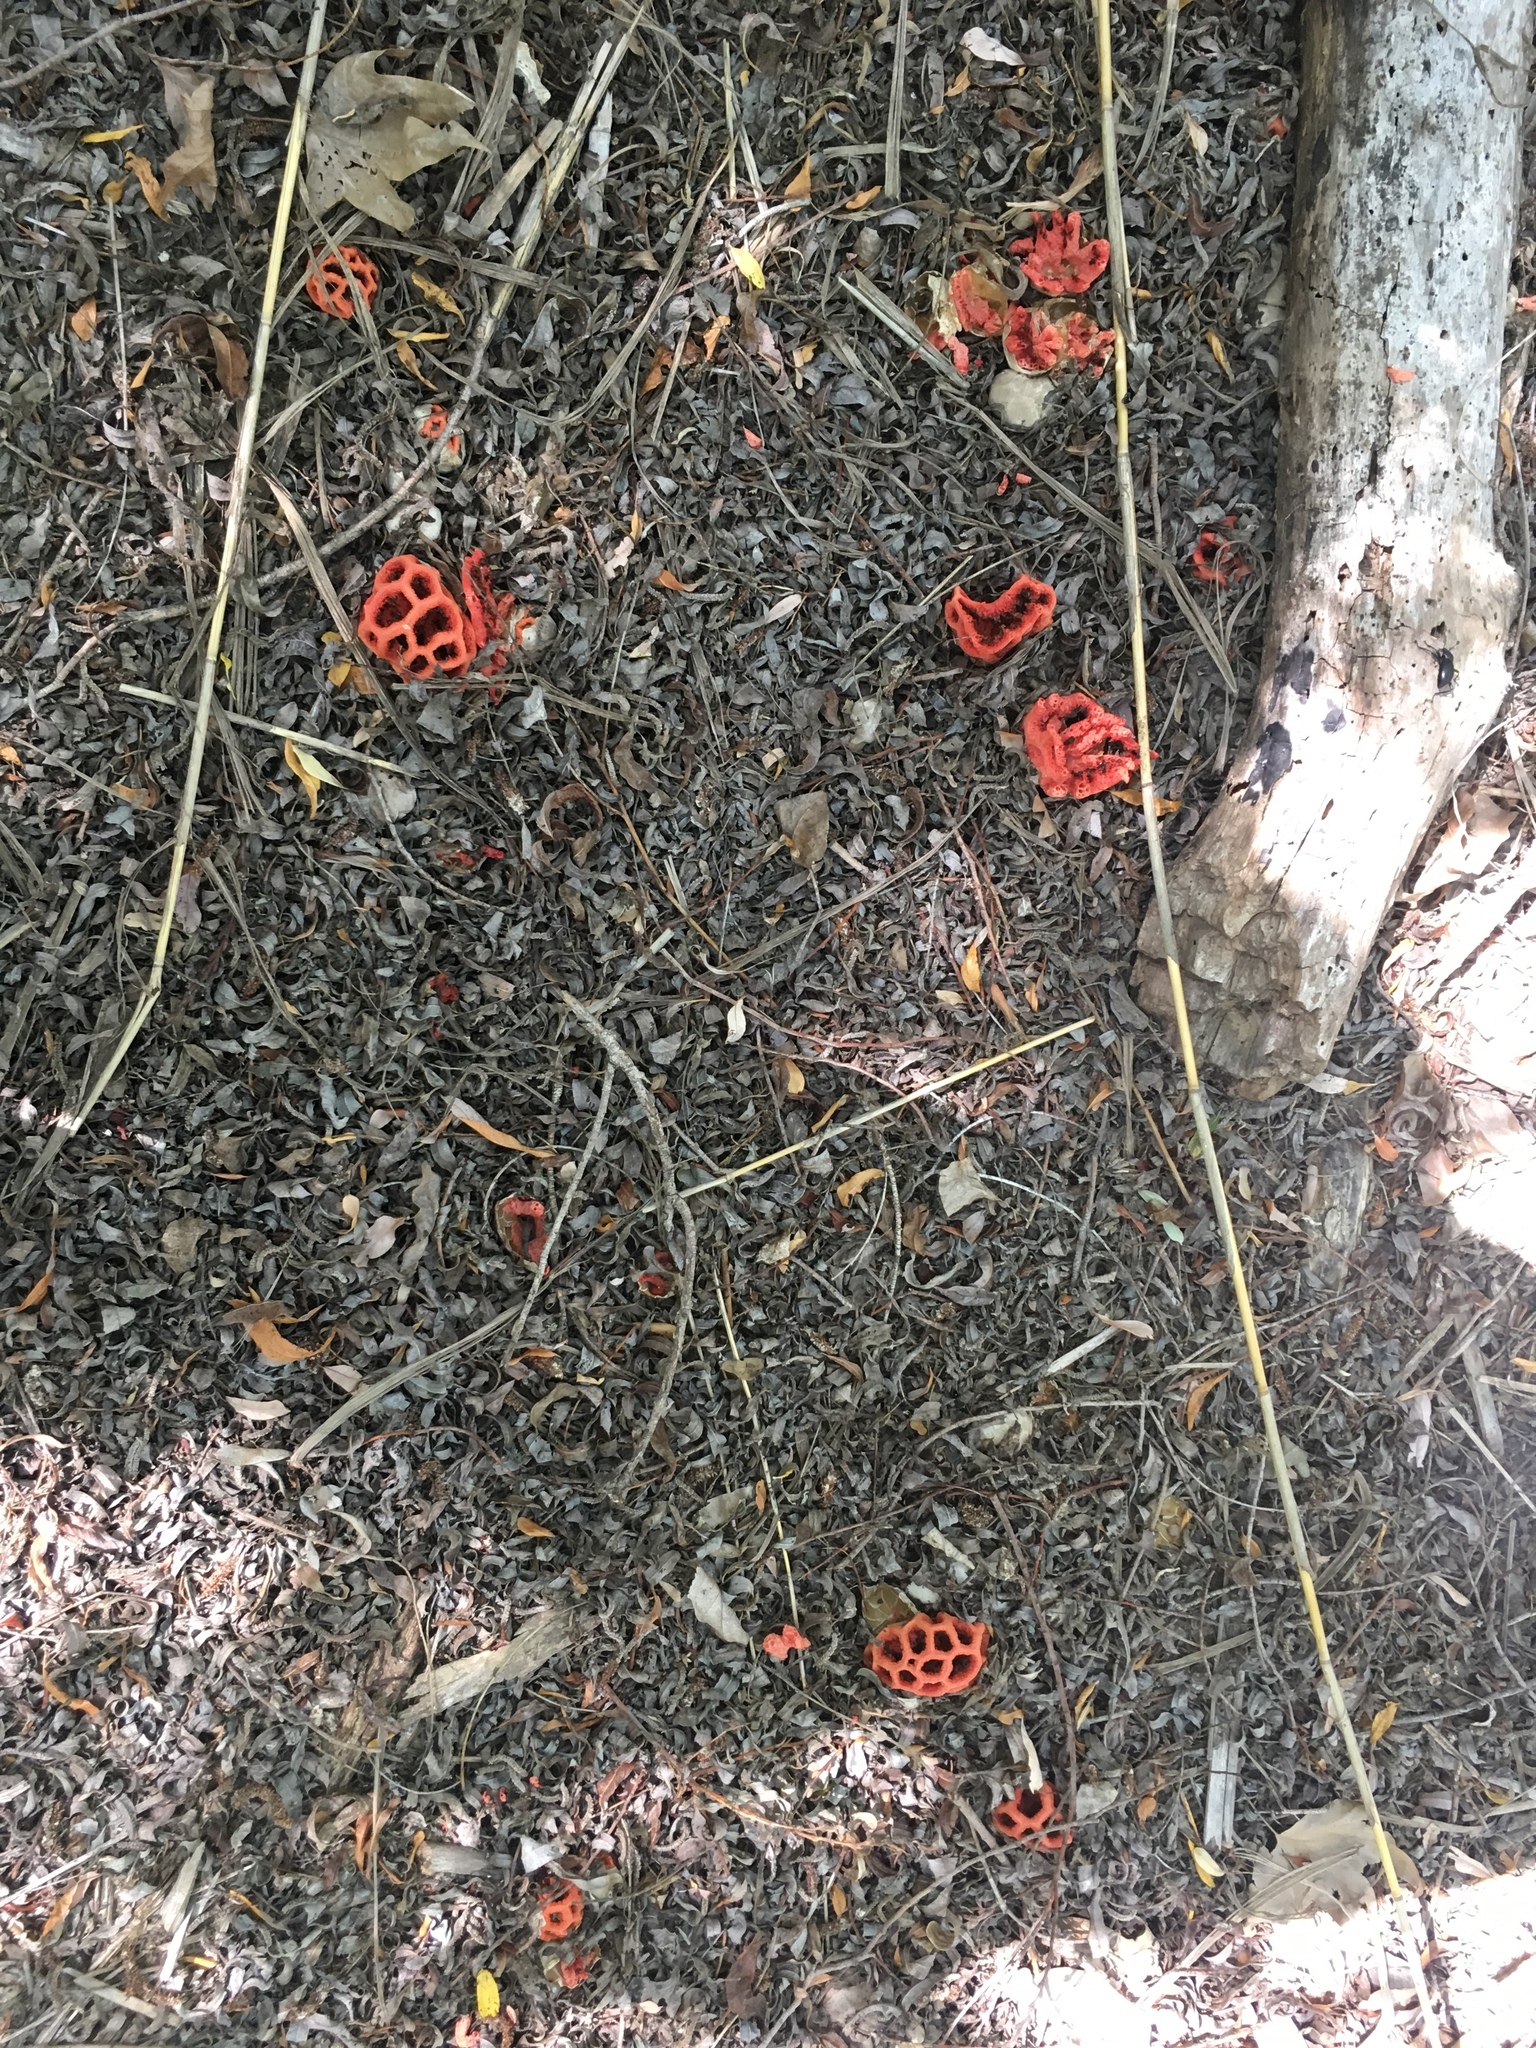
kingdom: Fungi
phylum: Basidiomycota
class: Agaricomycetes
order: Phallales
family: Phallaceae
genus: Clathrus
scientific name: Clathrus ruber
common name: Red cage
